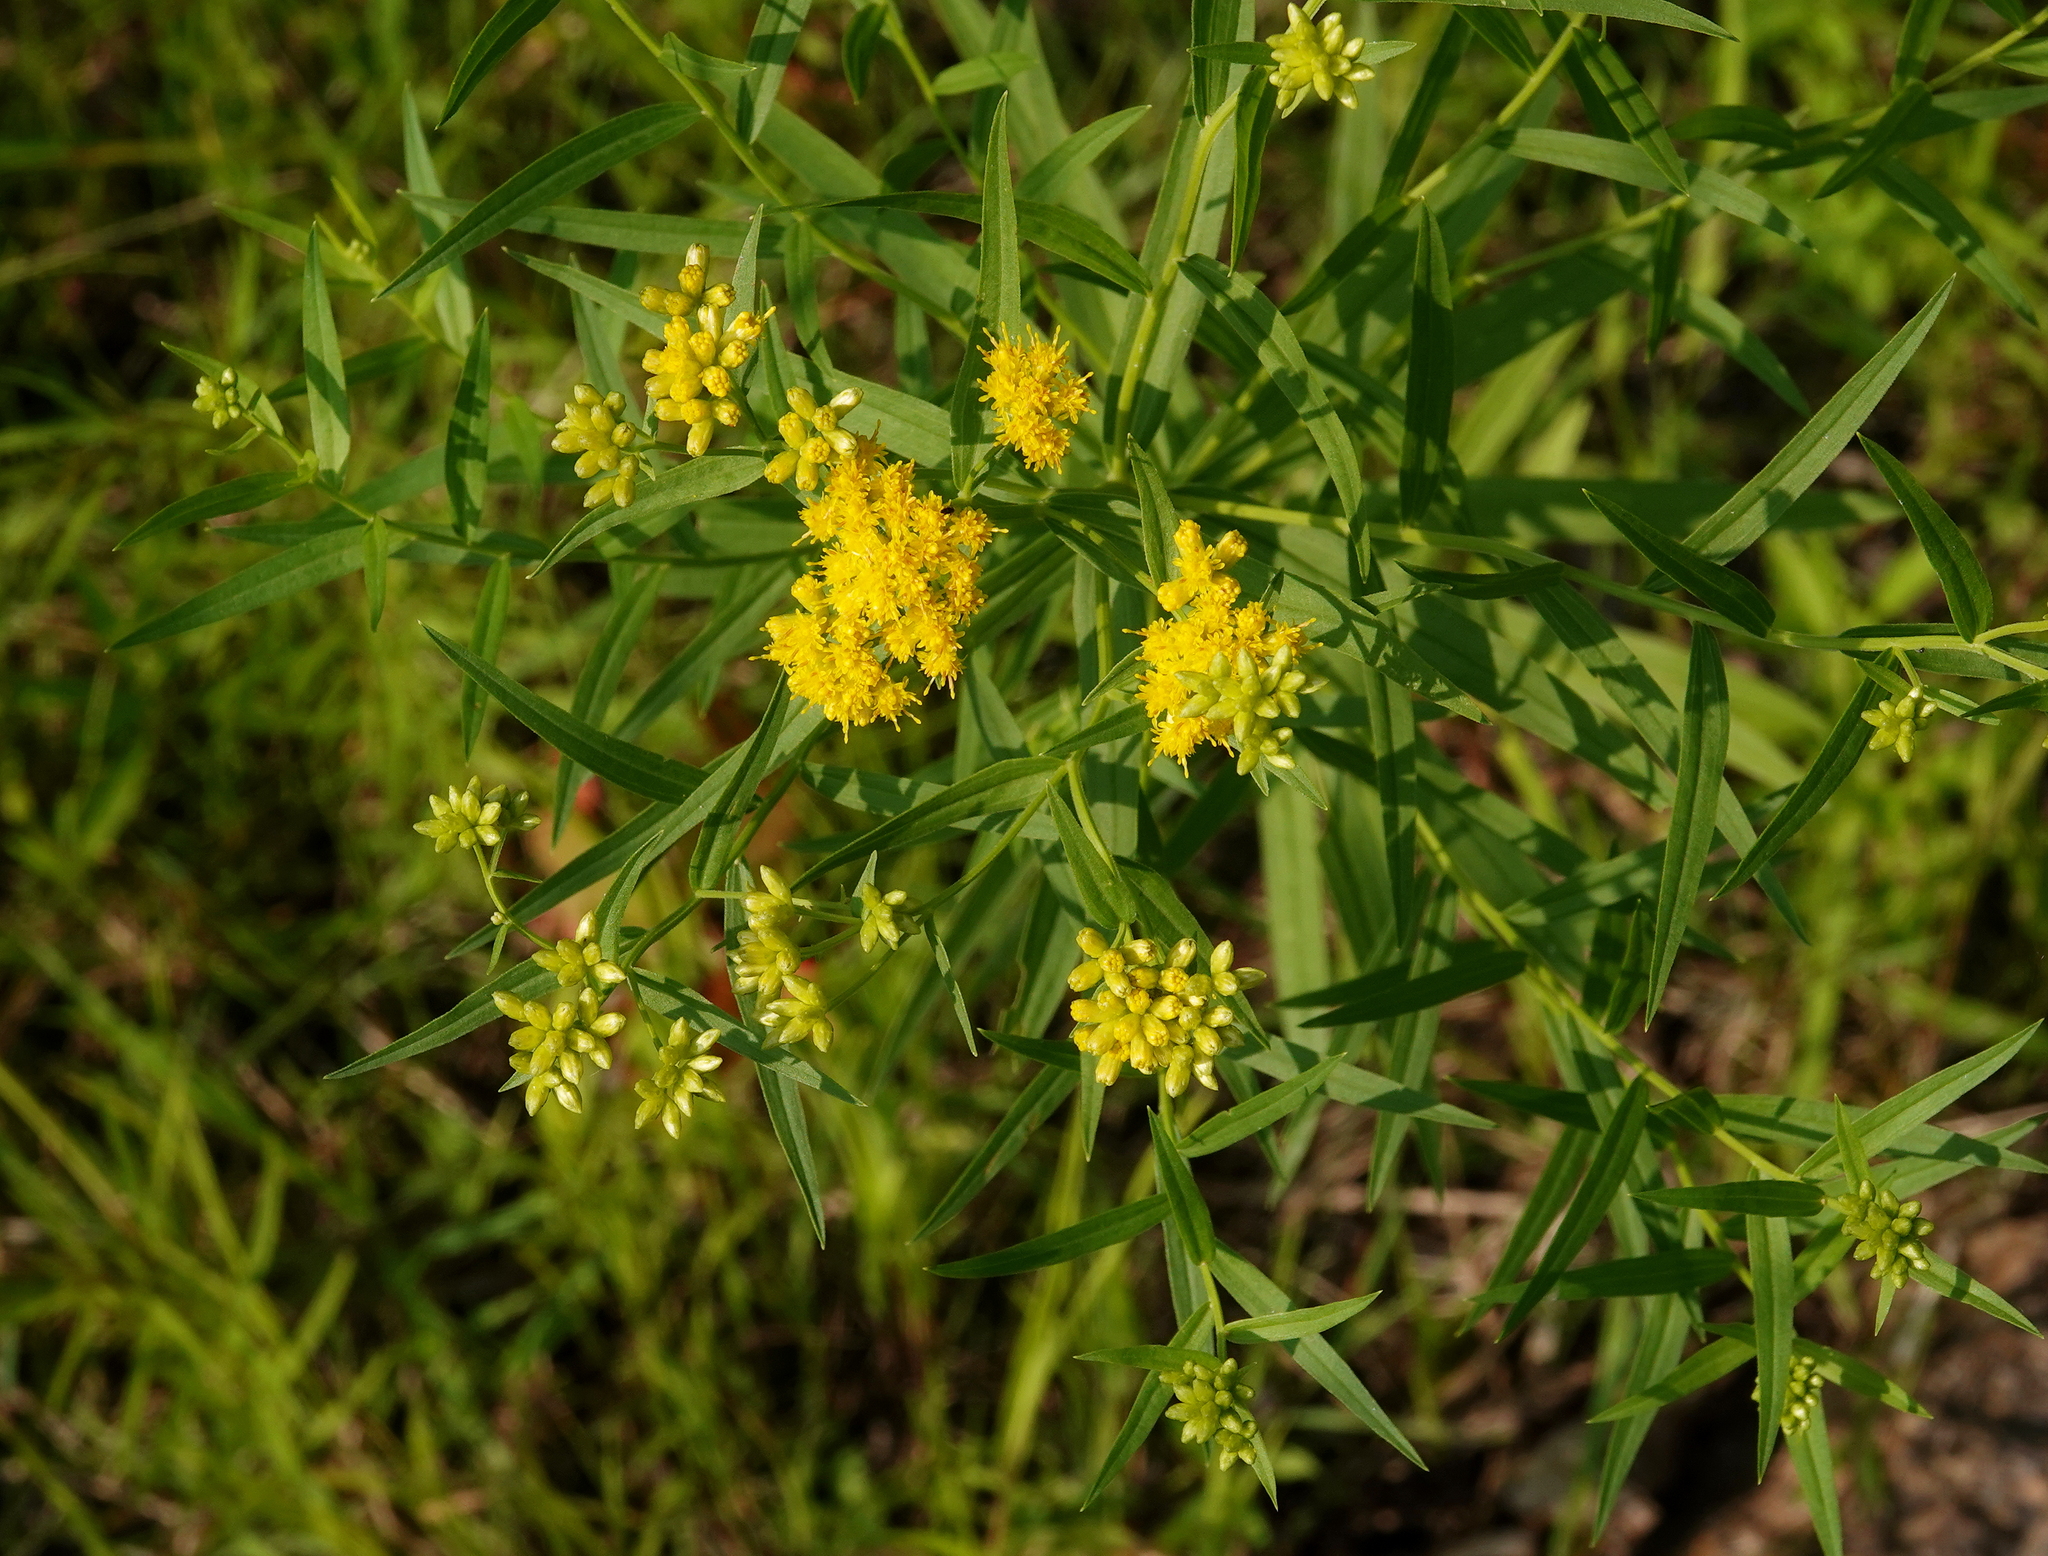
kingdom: Plantae
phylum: Tracheophyta
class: Magnoliopsida
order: Asterales
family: Asteraceae
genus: Euthamia
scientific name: Euthamia graminifolia
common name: Common goldentop
